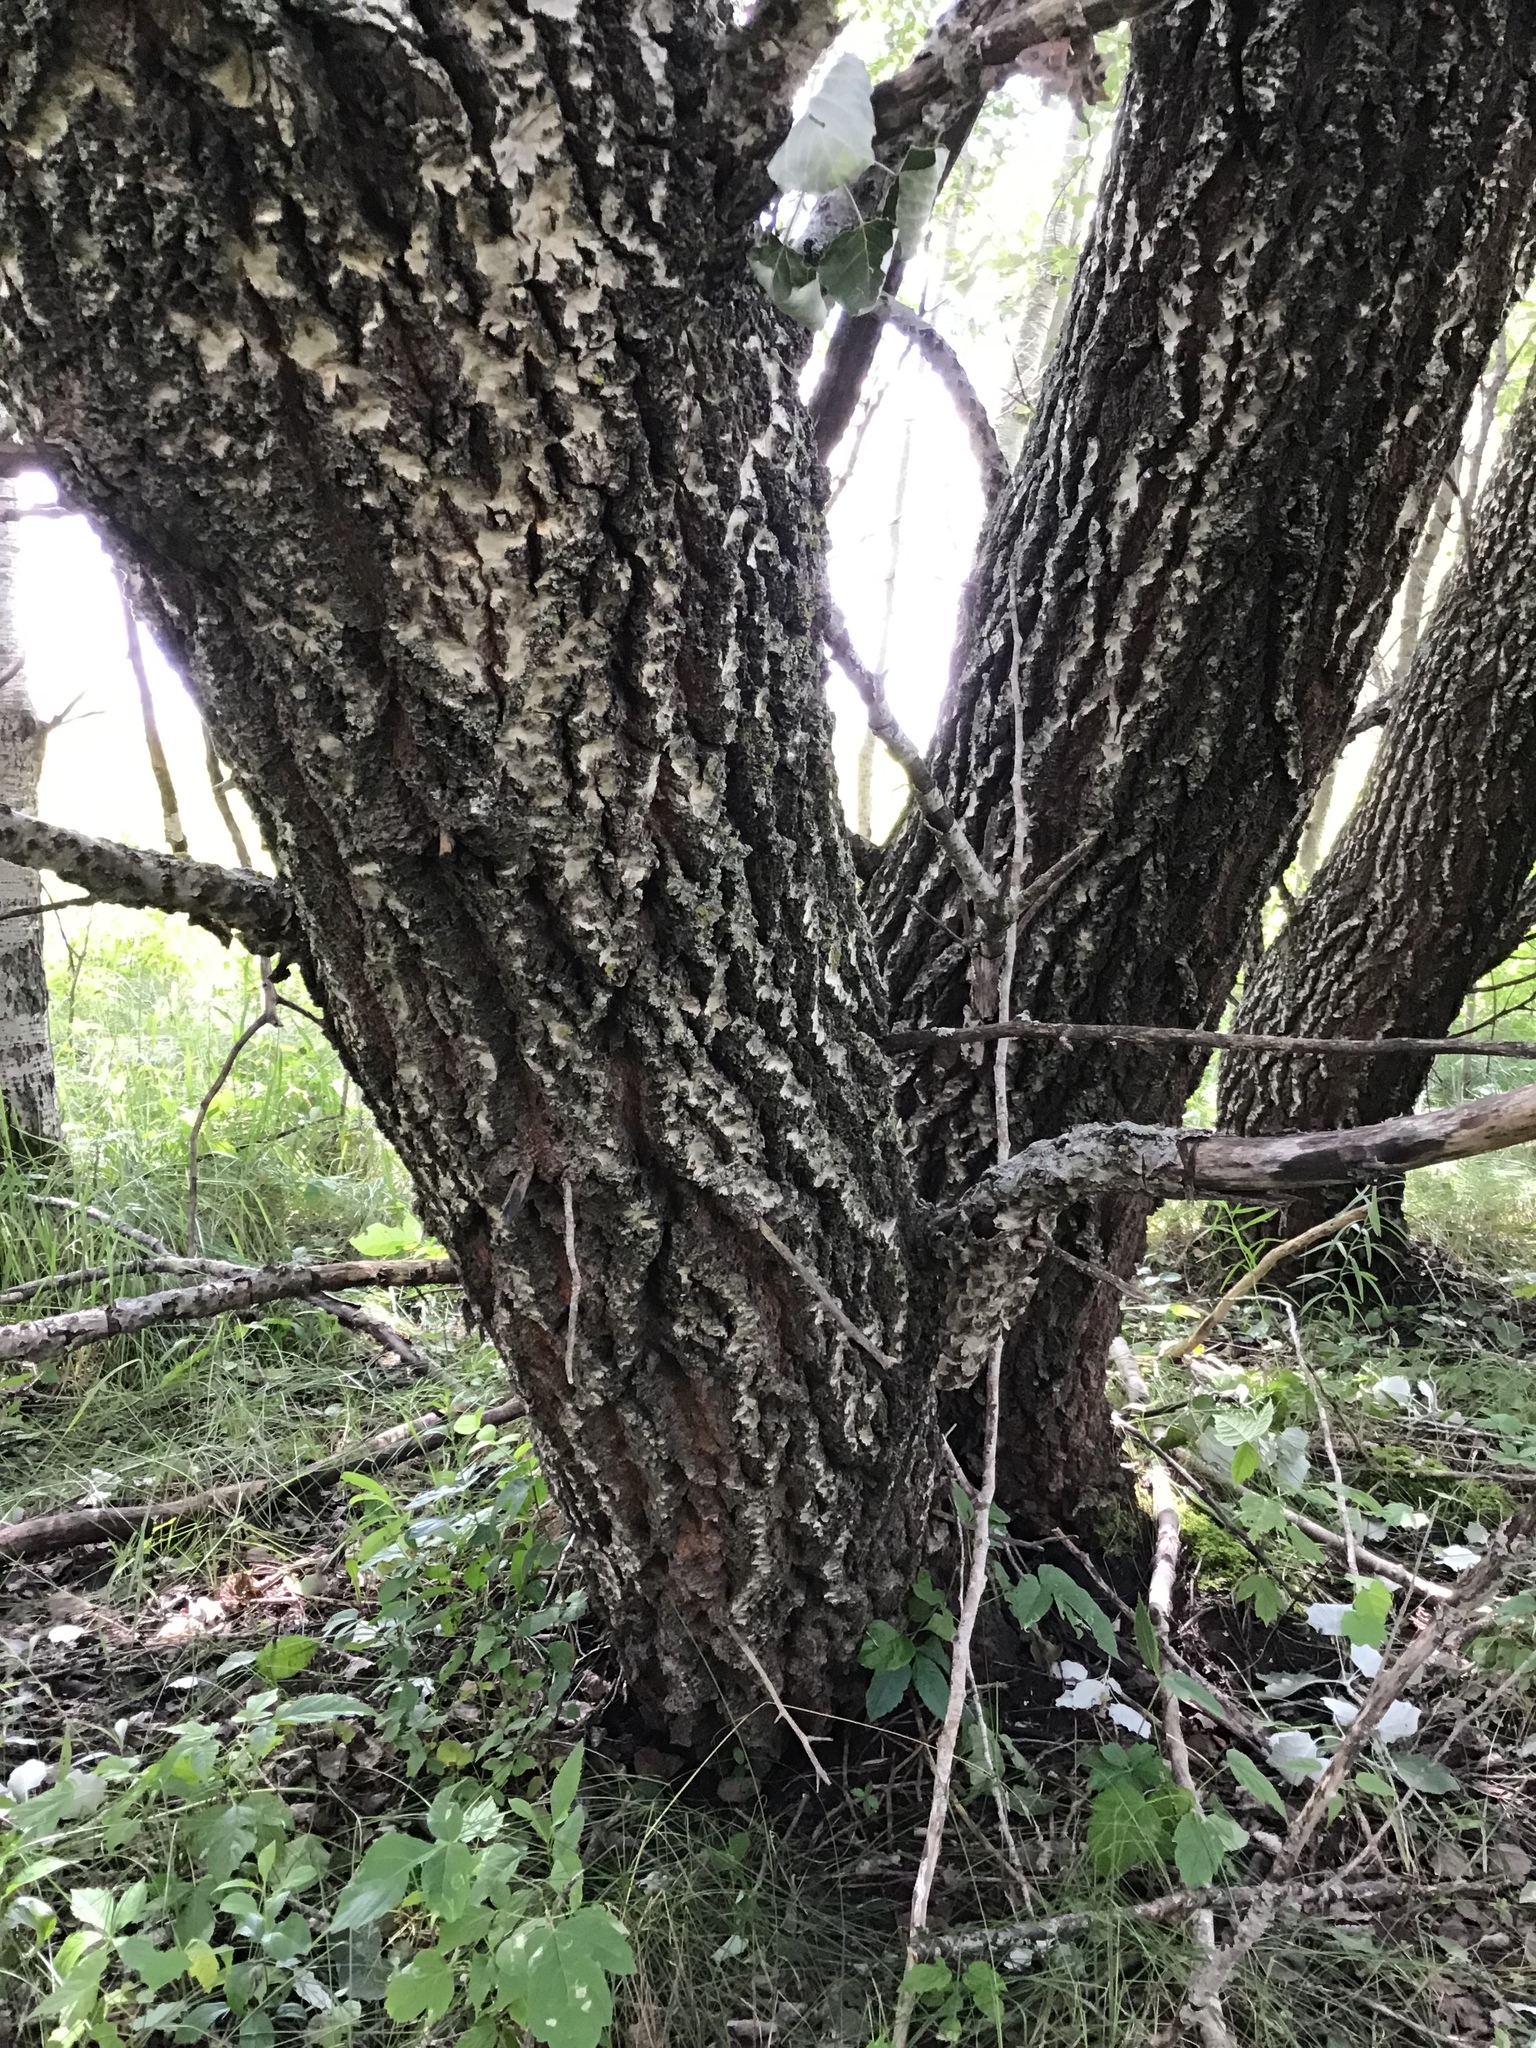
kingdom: Plantae
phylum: Tracheophyta
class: Magnoliopsida
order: Malpighiales
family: Salicaceae
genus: Populus
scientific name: Populus alba
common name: White poplar
